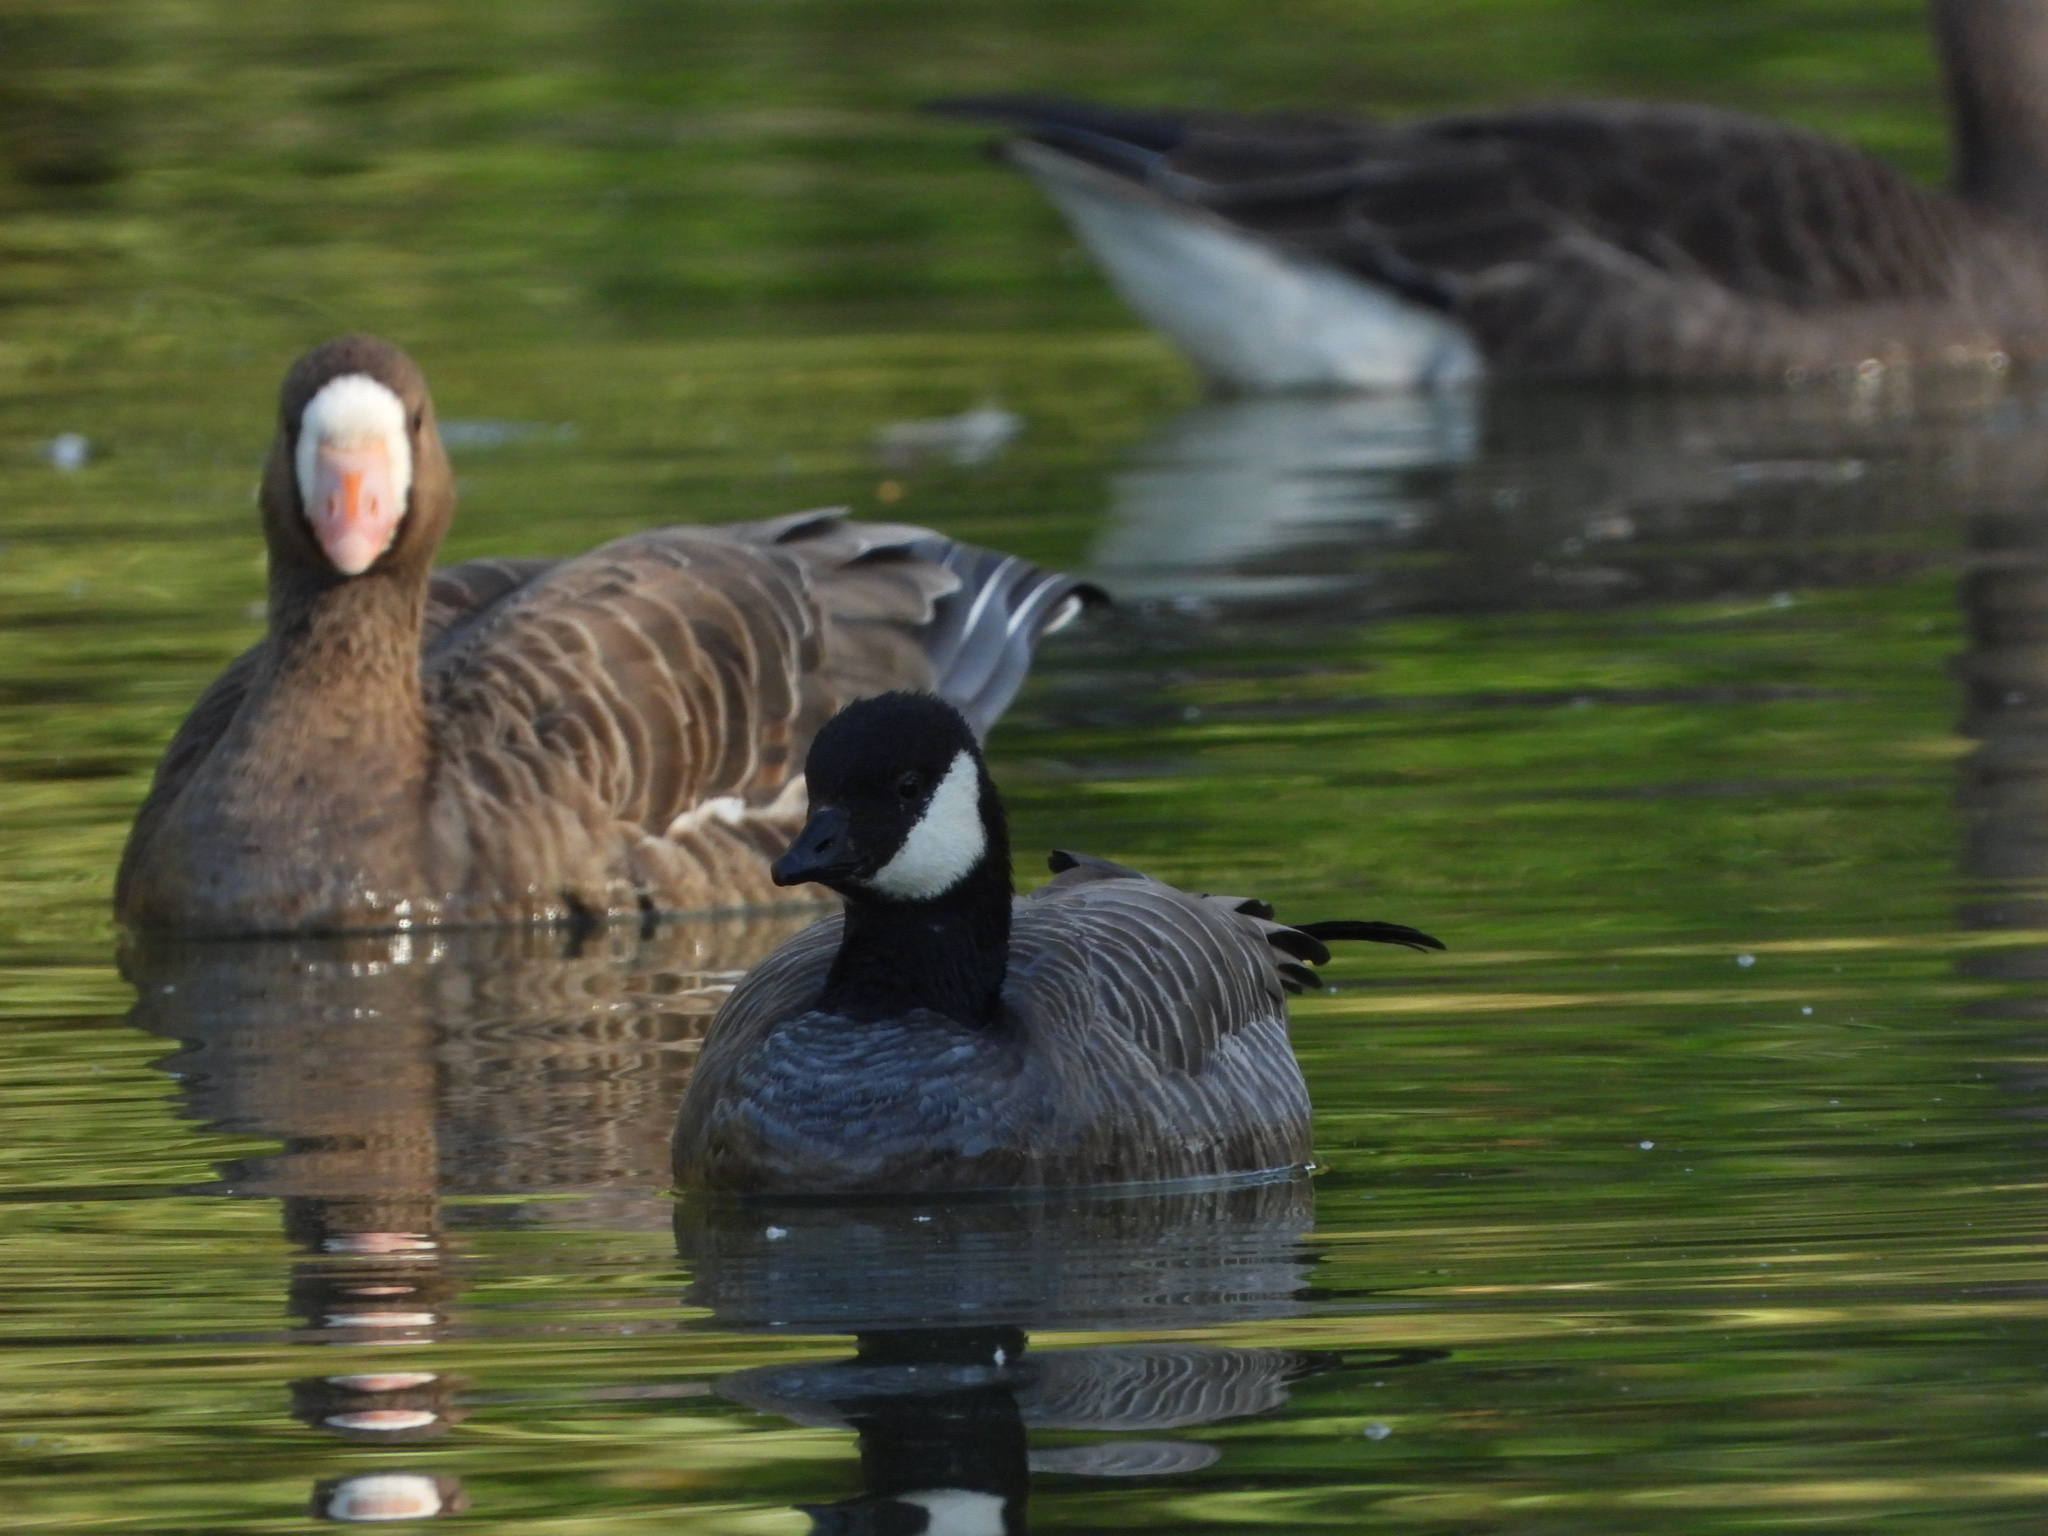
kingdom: Animalia
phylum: Chordata
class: Aves
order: Anseriformes
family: Anatidae
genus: Branta
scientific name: Branta hutchinsii
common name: Cackling goose
